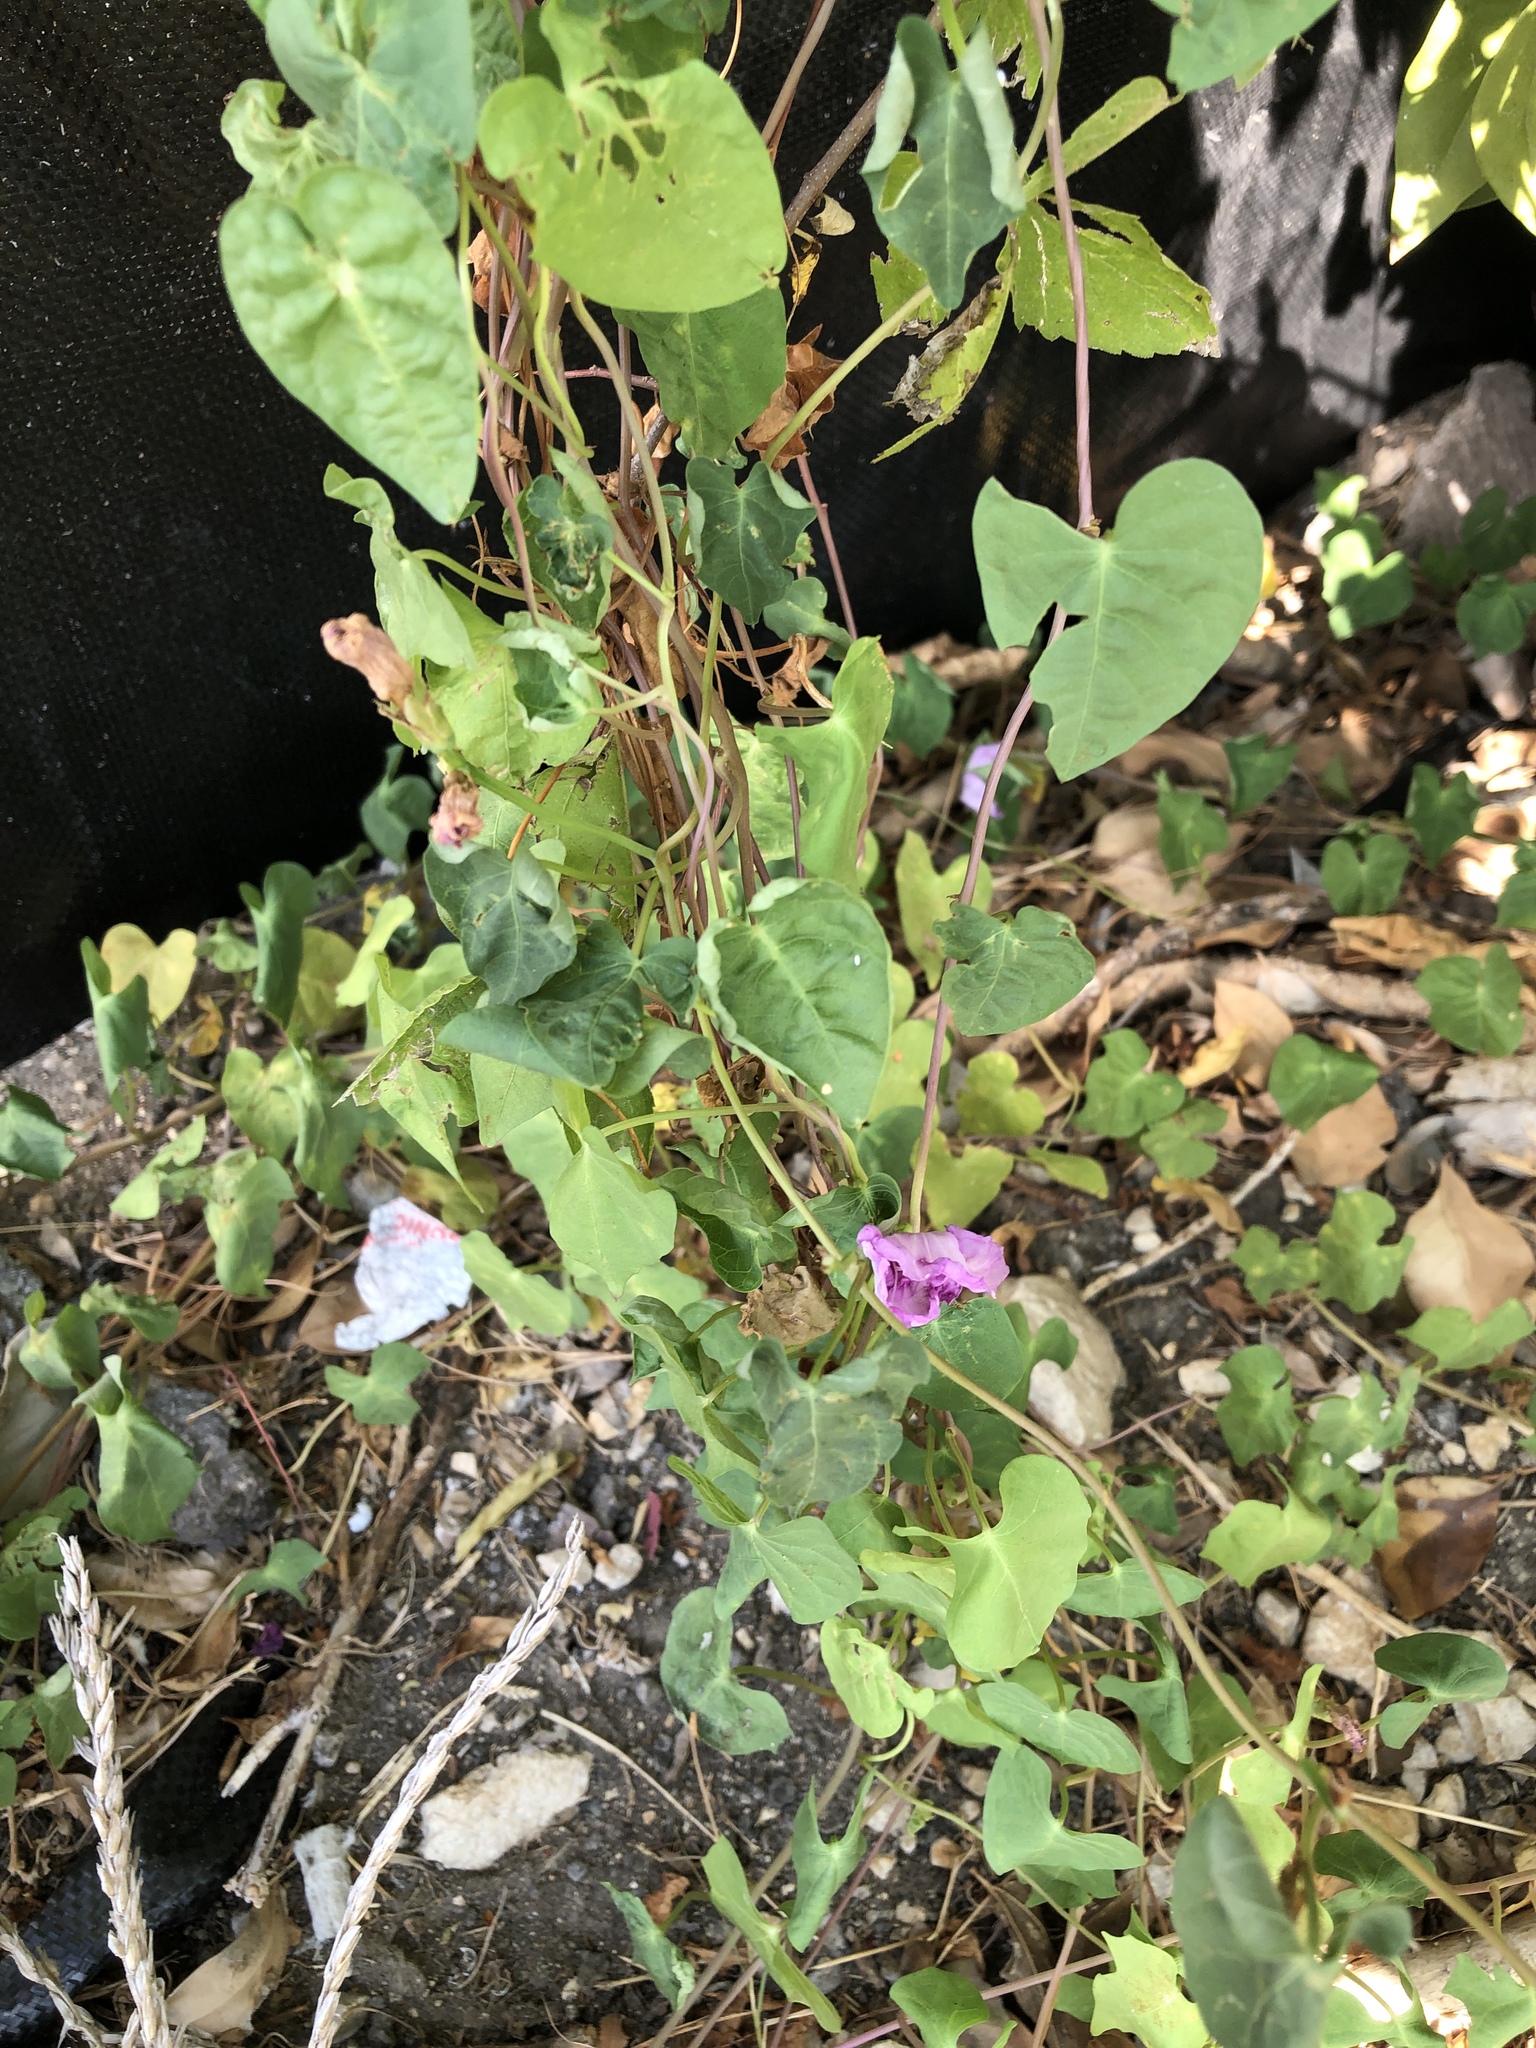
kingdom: Plantae
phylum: Tracheophyta
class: Magnoliopsida
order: Solanales
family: Convolvulaceae
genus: Ipomoea
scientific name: Ipomoea cordatotriloba
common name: Cotton morning glory
